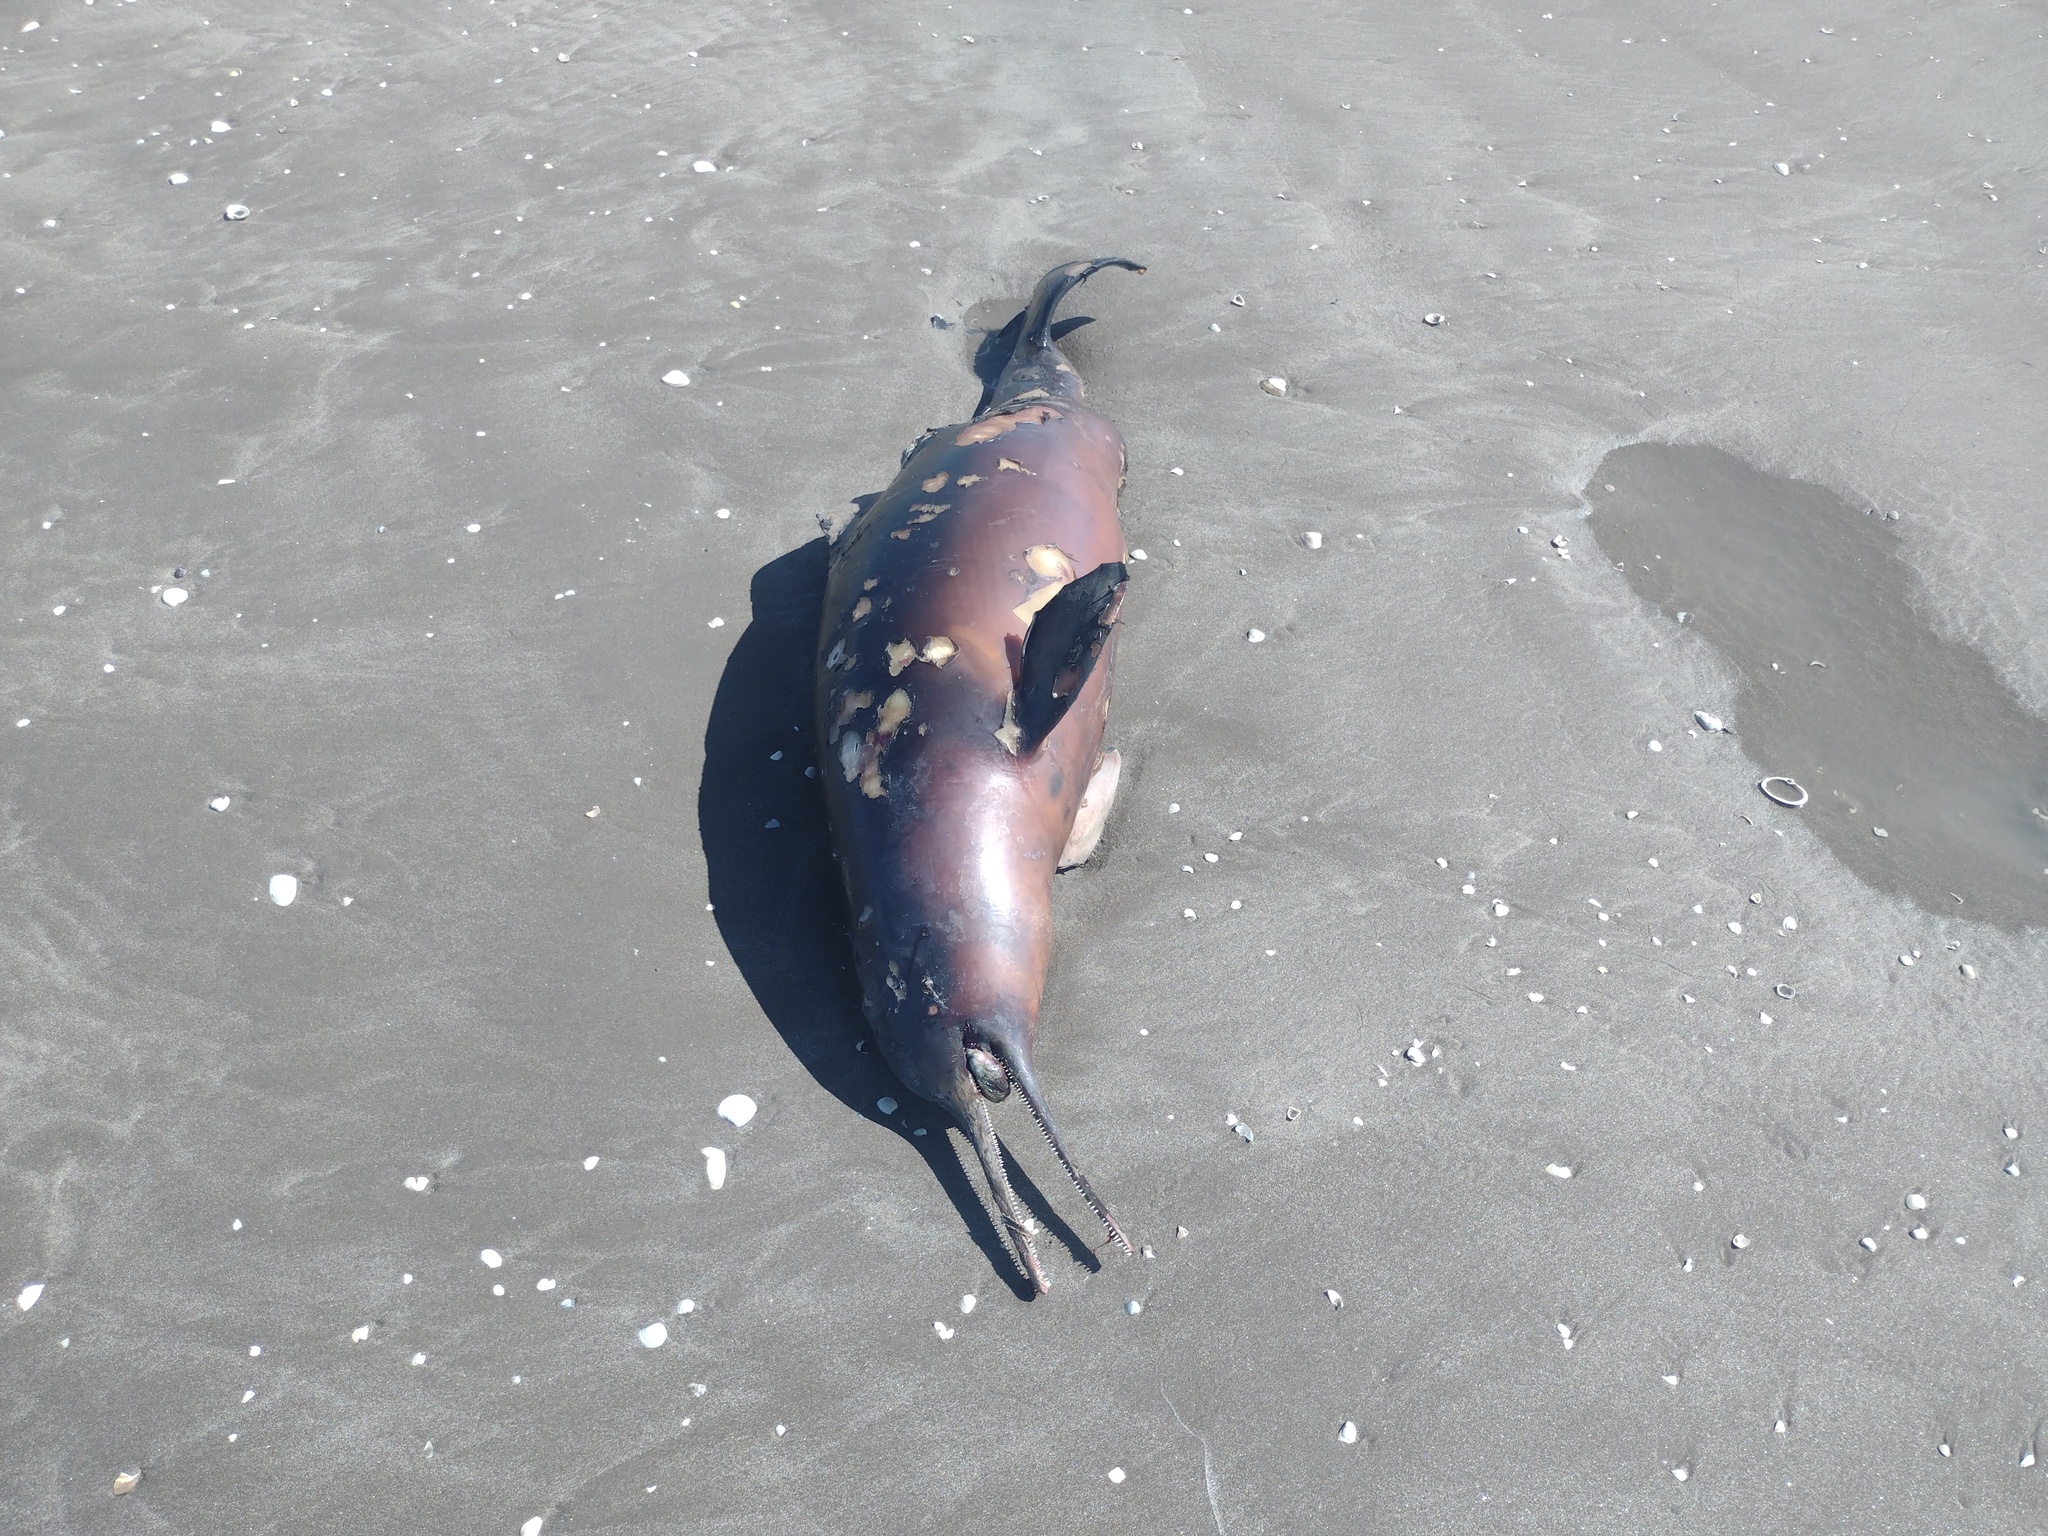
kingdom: Animalia
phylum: Chordata
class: Mammalia
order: Cetacea
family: Pontoporiidae
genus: Pontoporia
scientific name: Pontoporia blainvillei
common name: Franciscana
